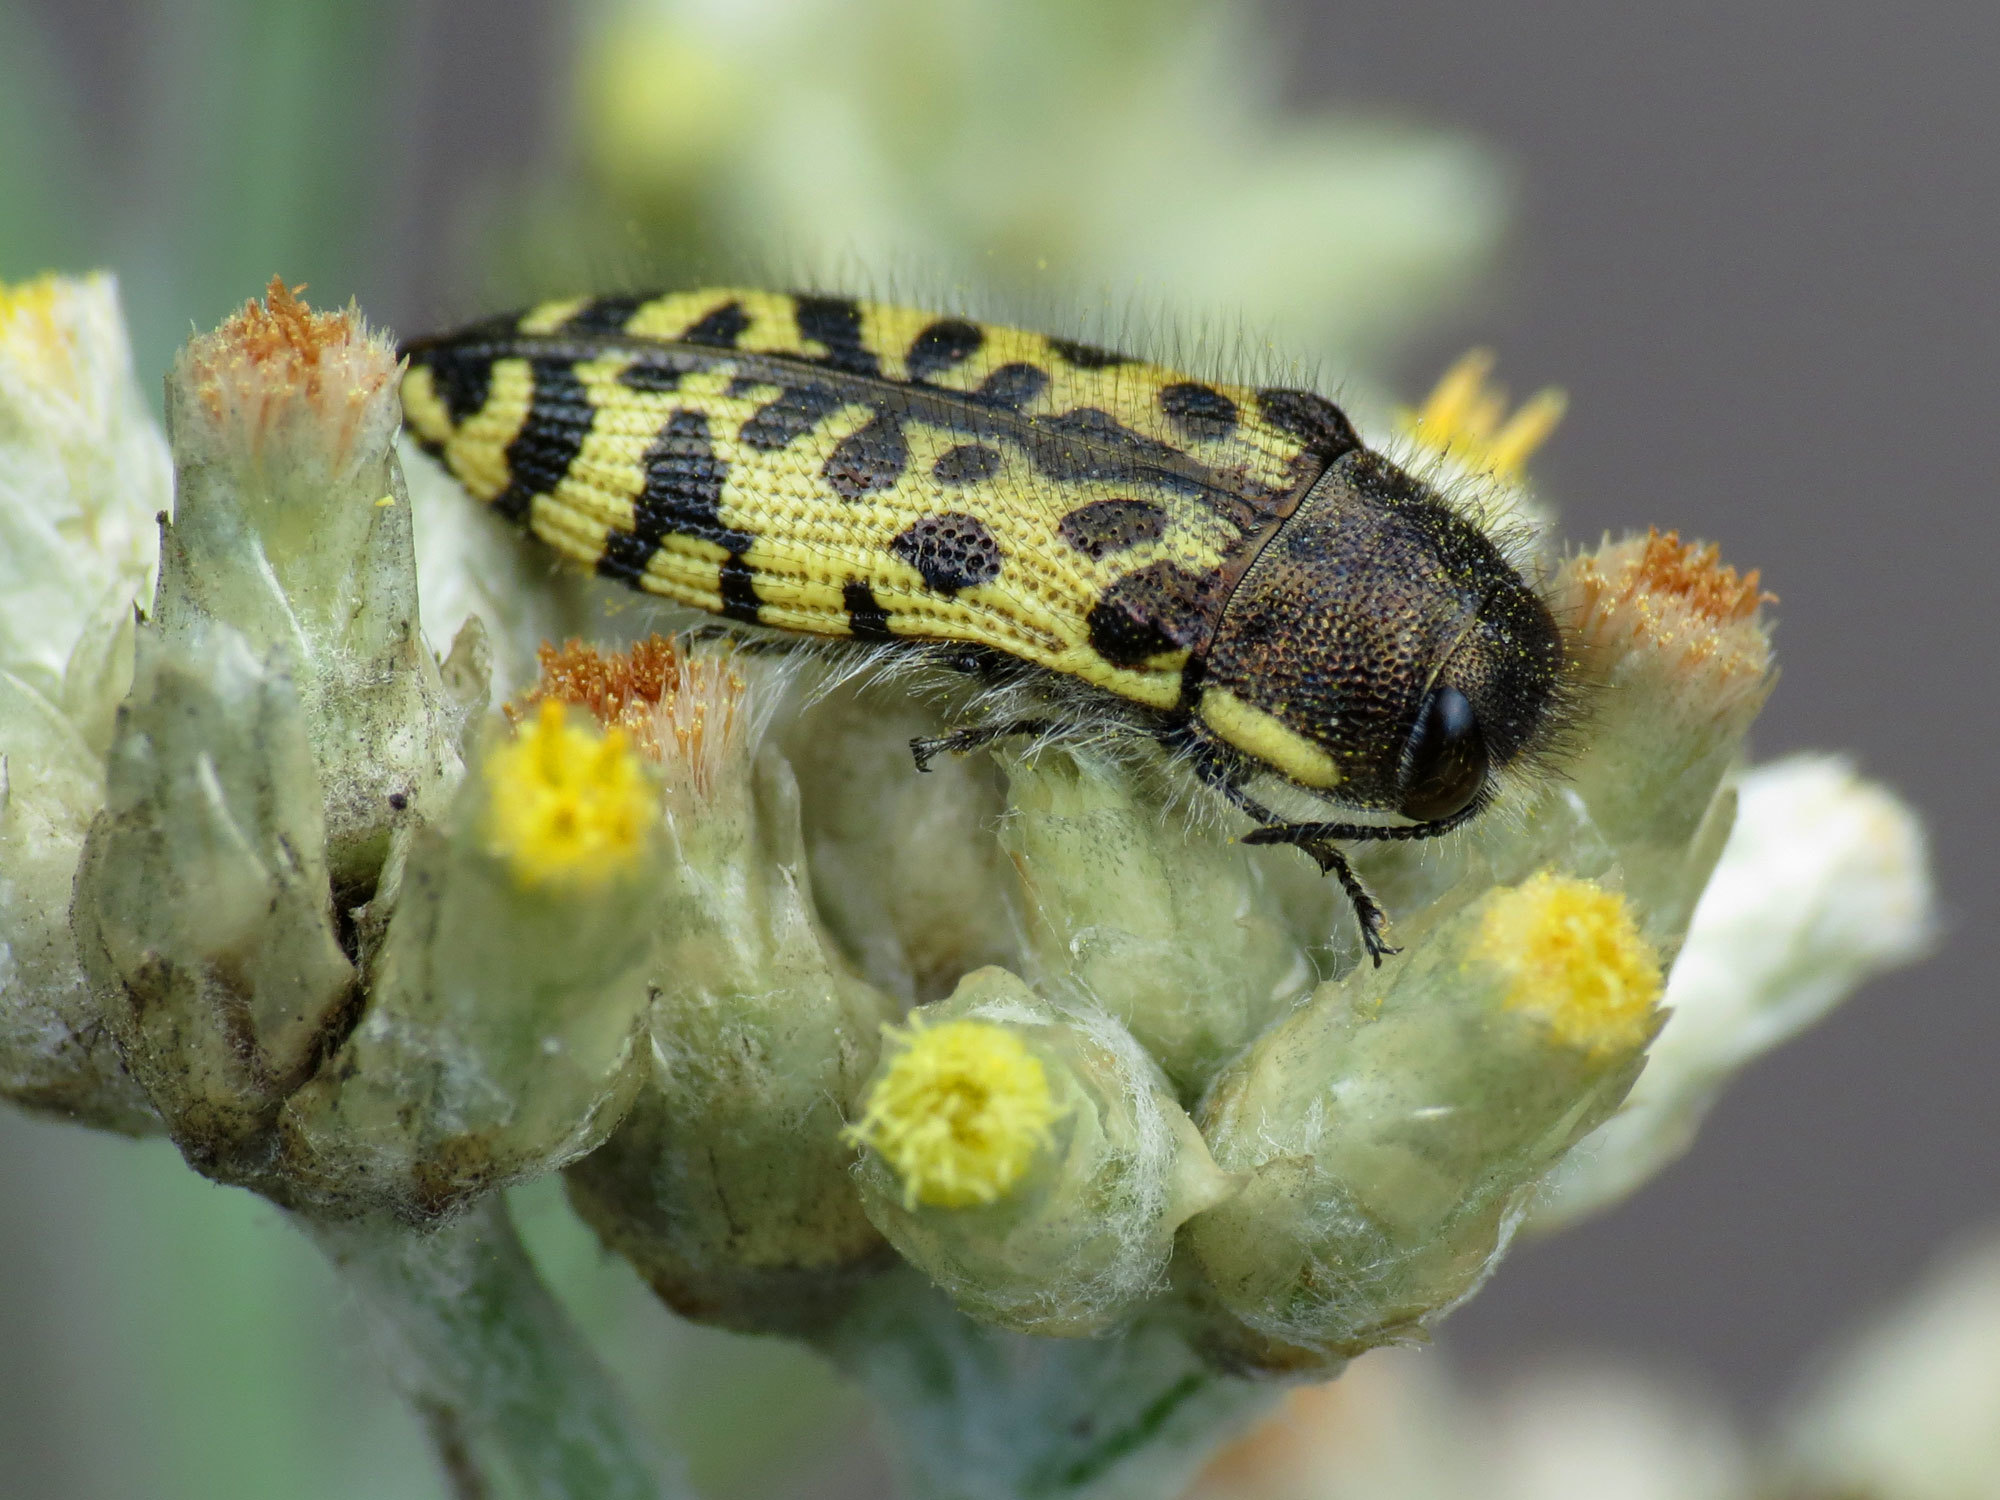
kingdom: Animalia
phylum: Arthropoda
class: Insecta
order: Coleoptera
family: Buprestidae
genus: Acmaeodera
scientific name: Acmaeodera decipiens
